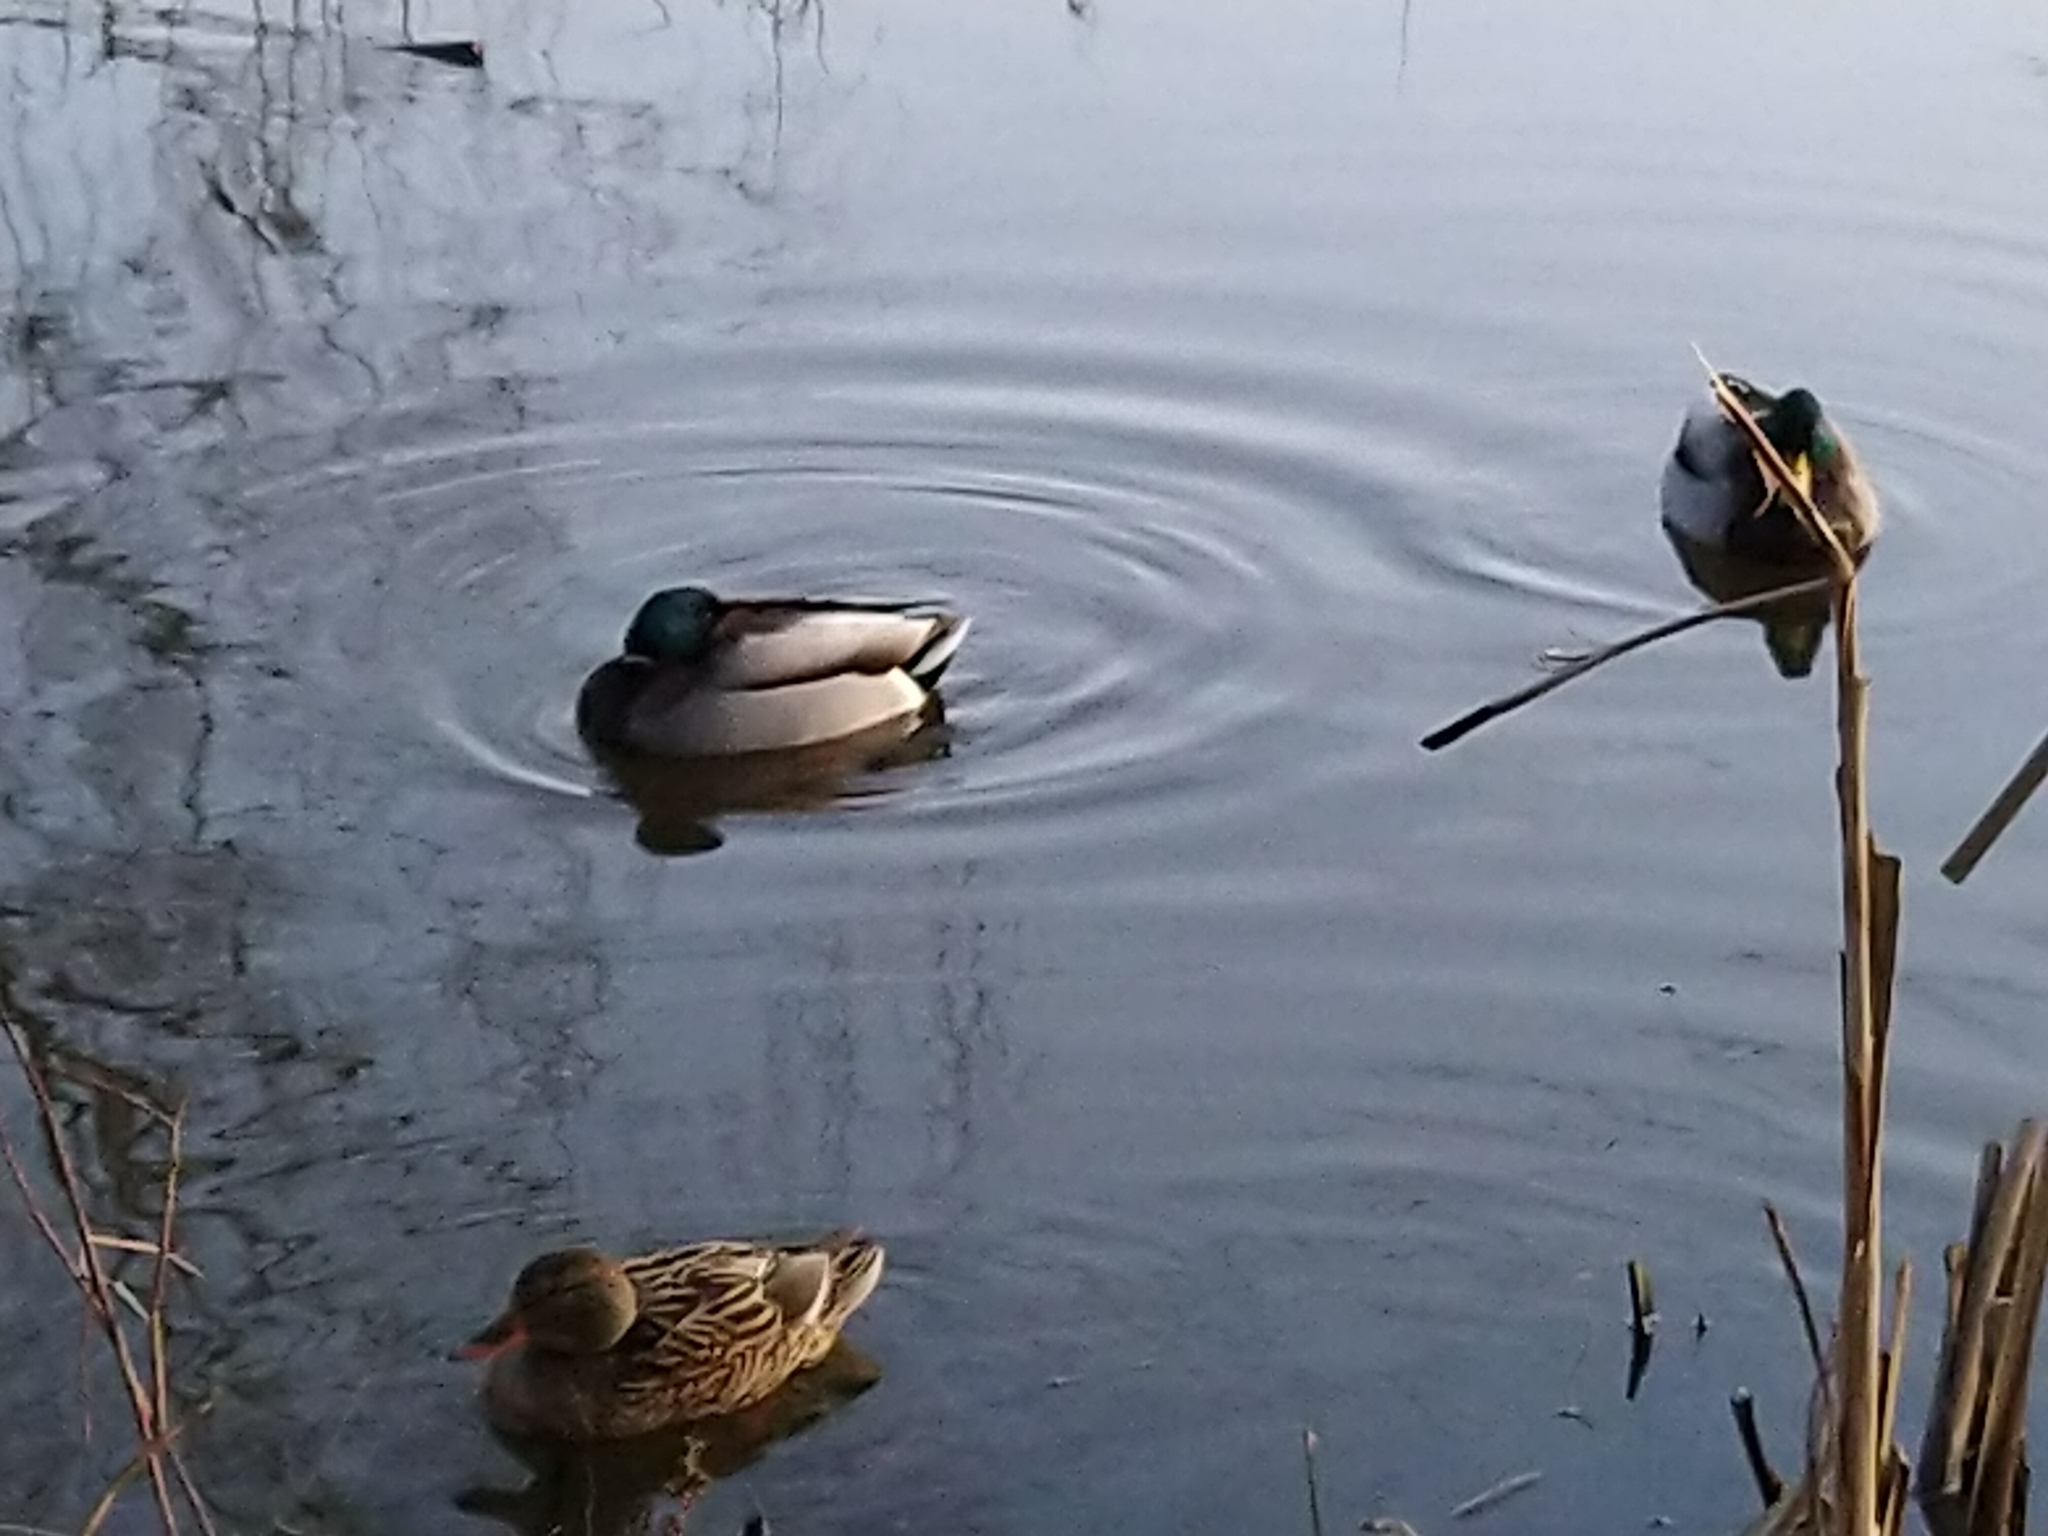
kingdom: Animalia
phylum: Chordata
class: Aves
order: Anseriformes
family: Anatidae
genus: Anas
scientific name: Anas platyrhynchos
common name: Mallard
